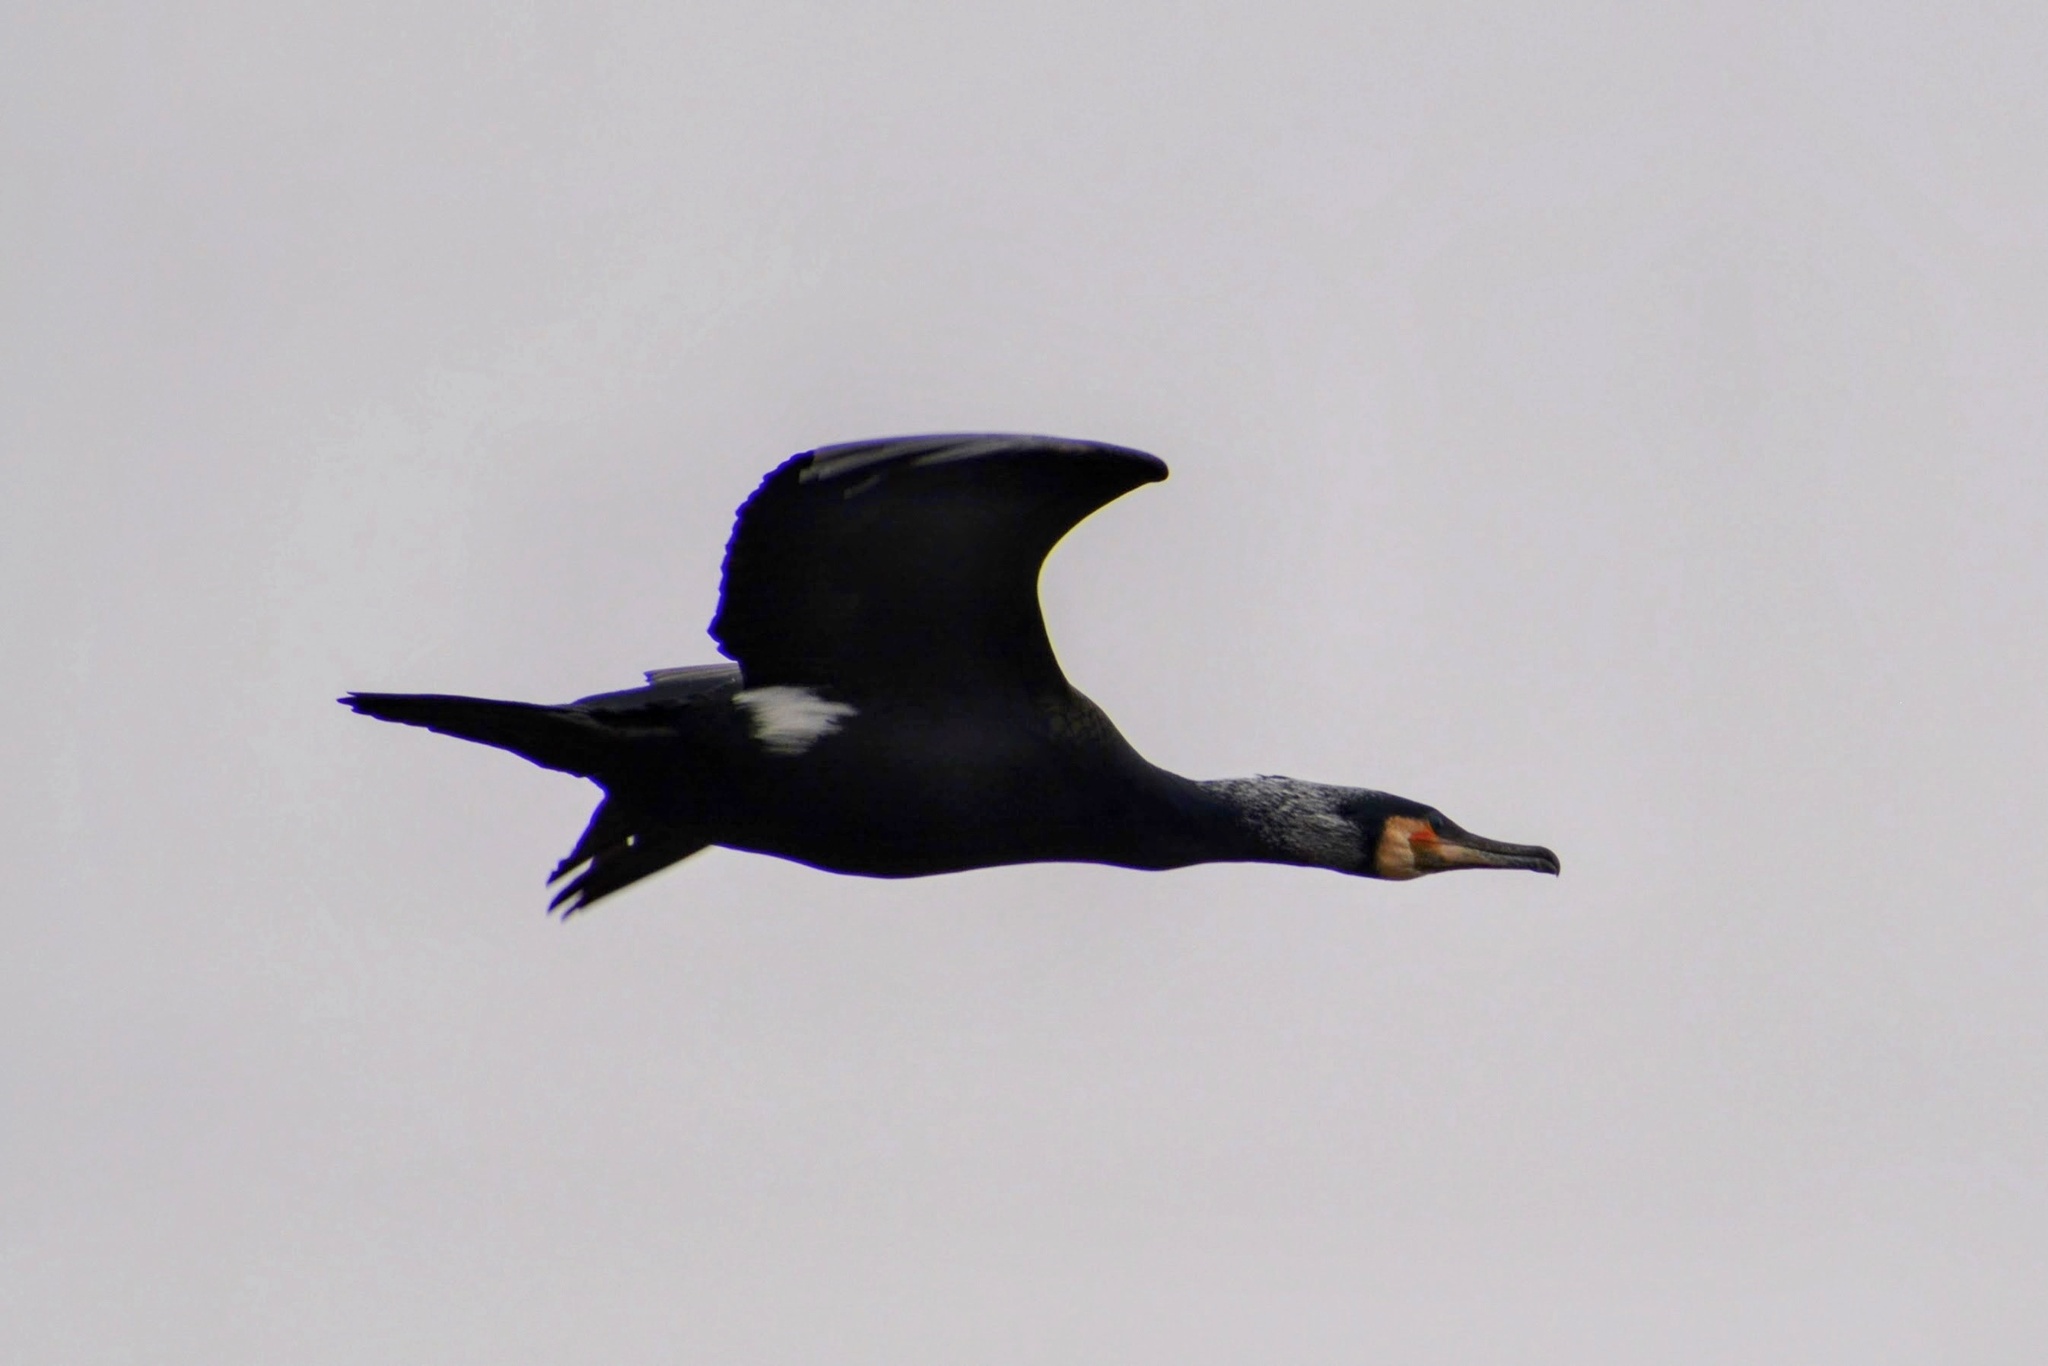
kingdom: Animalia
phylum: Chordata
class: Aves
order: Suliformes
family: Phalacrocoracidae
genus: Phalacrocorax
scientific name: Phalacrocorax carbo
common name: Great cormorant
